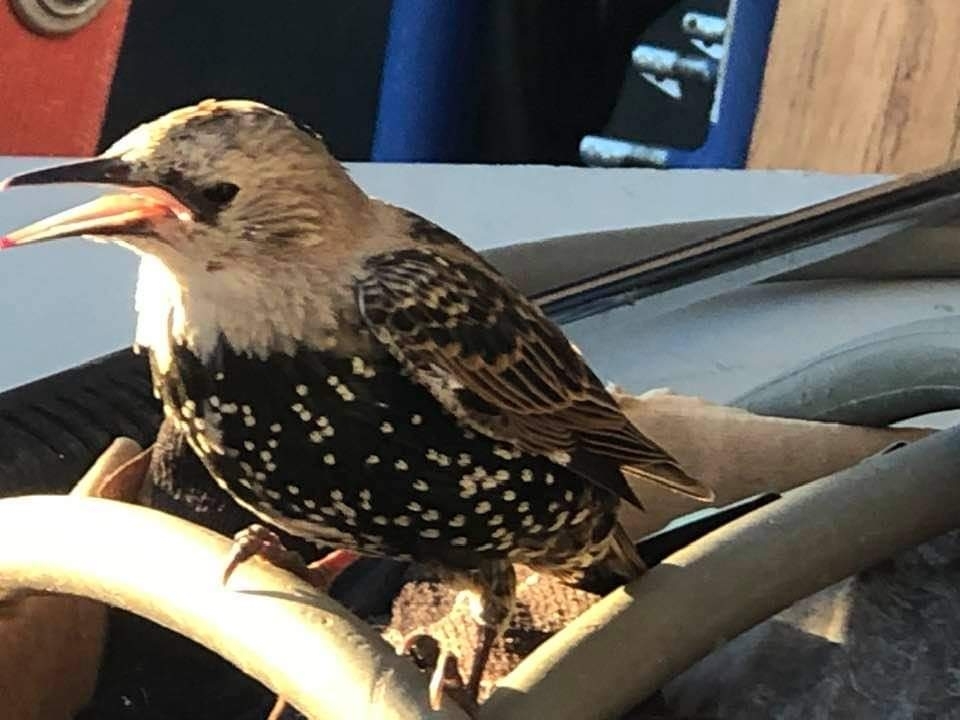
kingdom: Animalia
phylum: Chordata
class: Aves
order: Passeriformes
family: Sturnidae
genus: Sturnus
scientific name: Sturnus vulgaris
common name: Common starling
